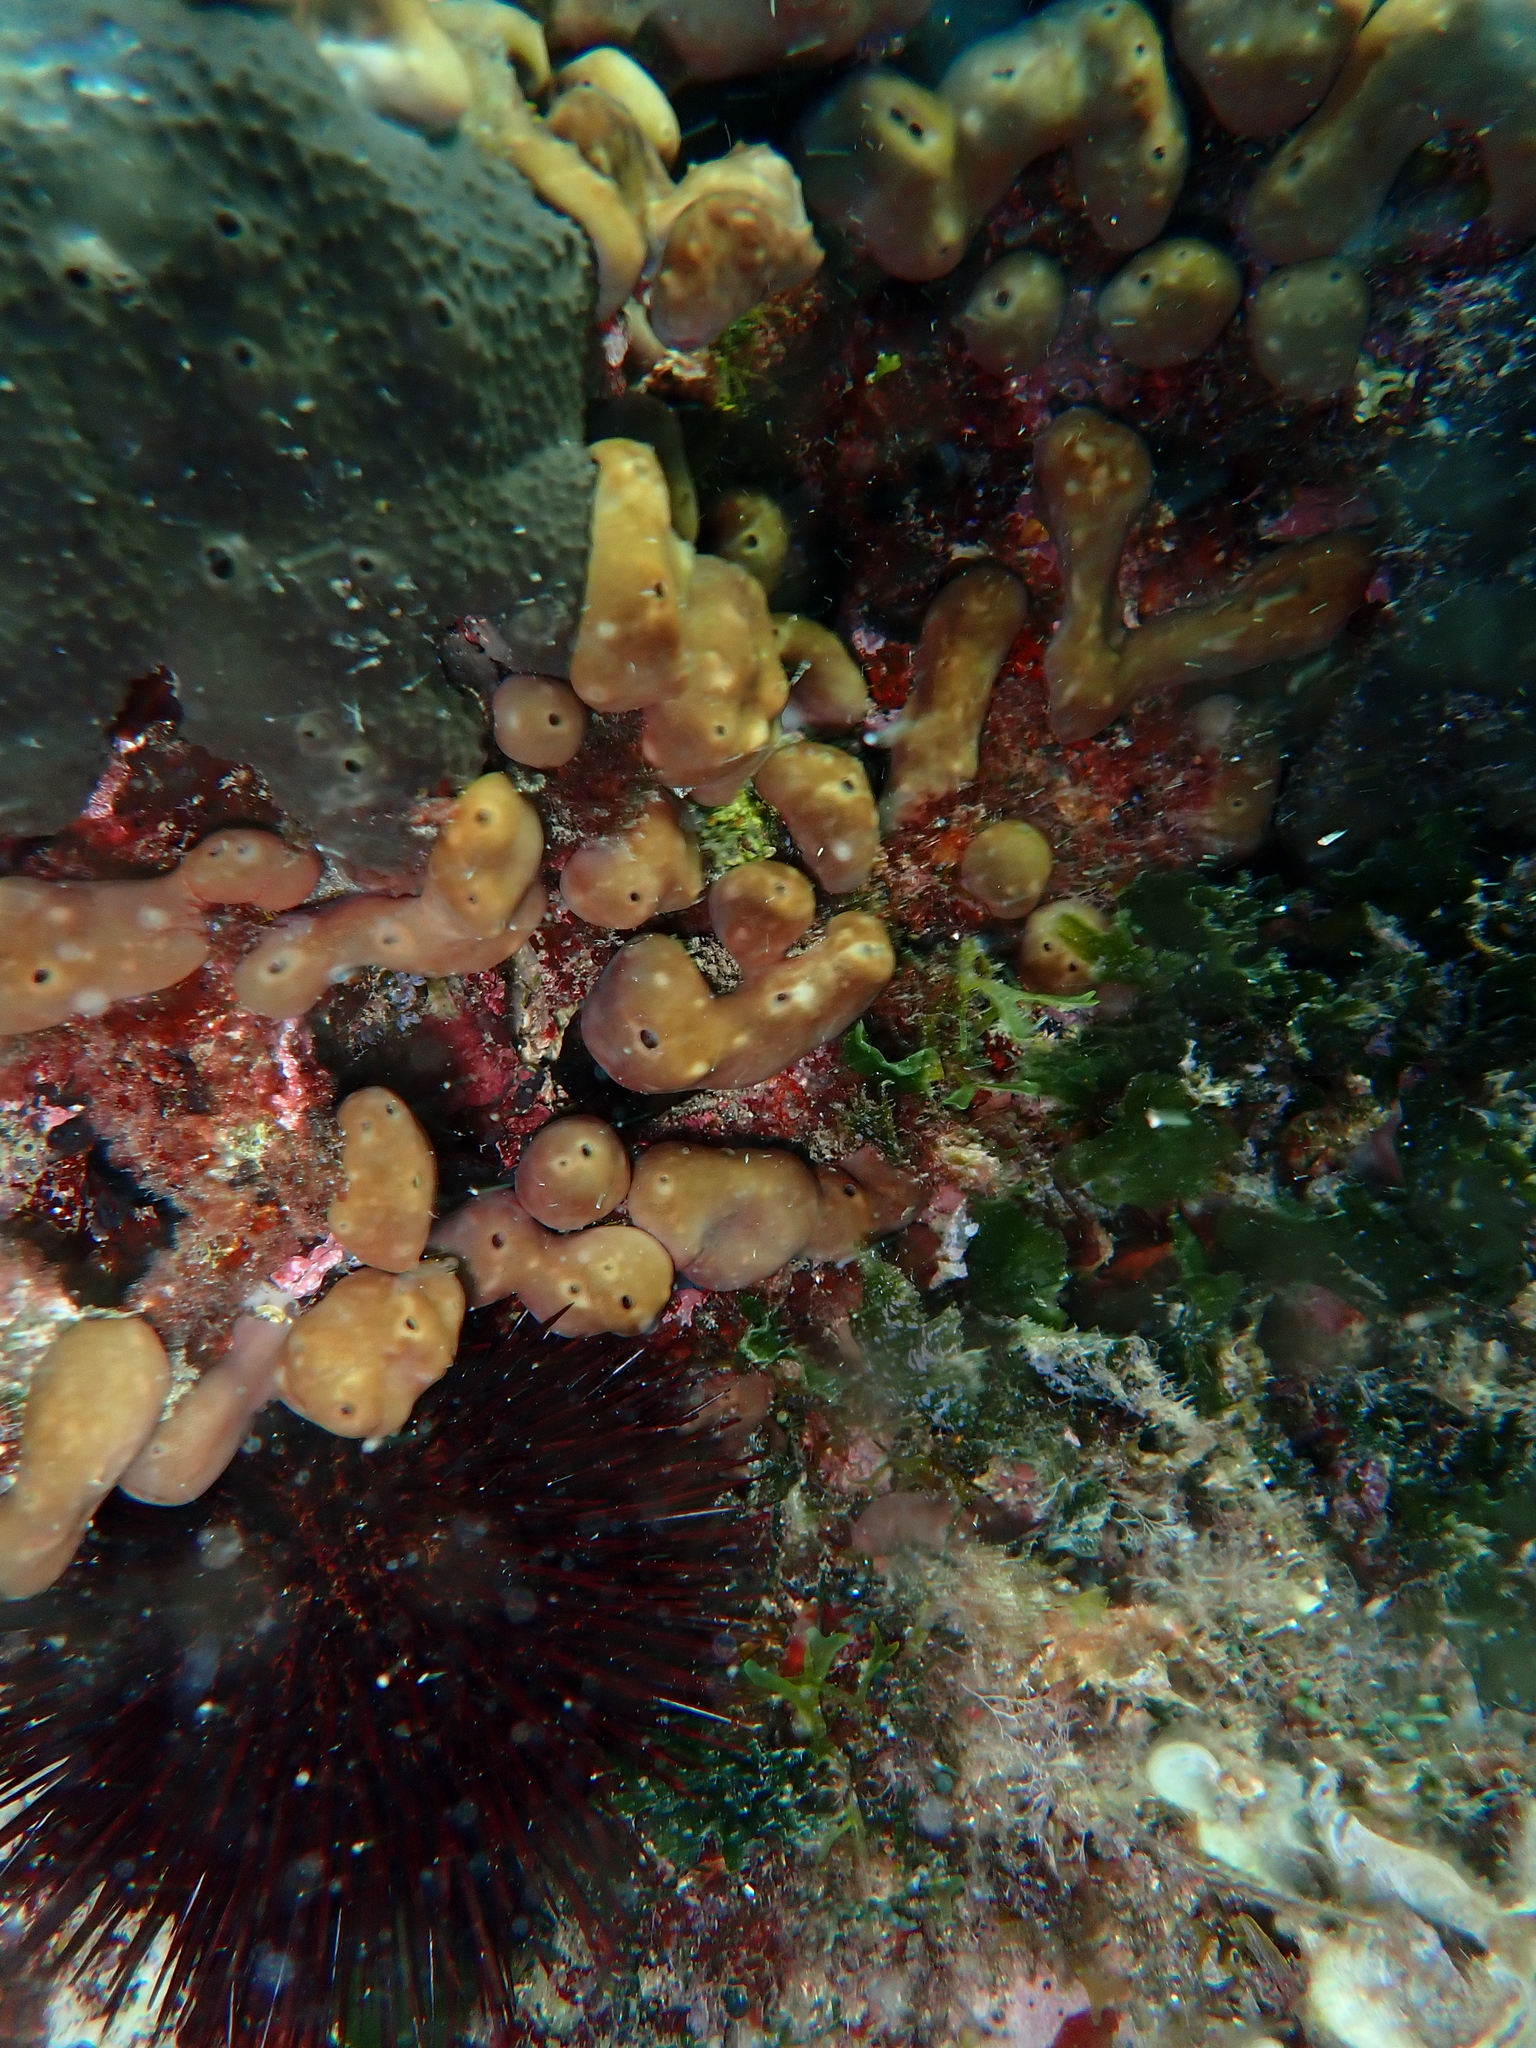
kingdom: Animalia
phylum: Porifera
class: Demospongiae
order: Chondrillida
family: Chondrillidae
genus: Chondrilla
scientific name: Chondrilla nucula
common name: Chicken liver sponge
